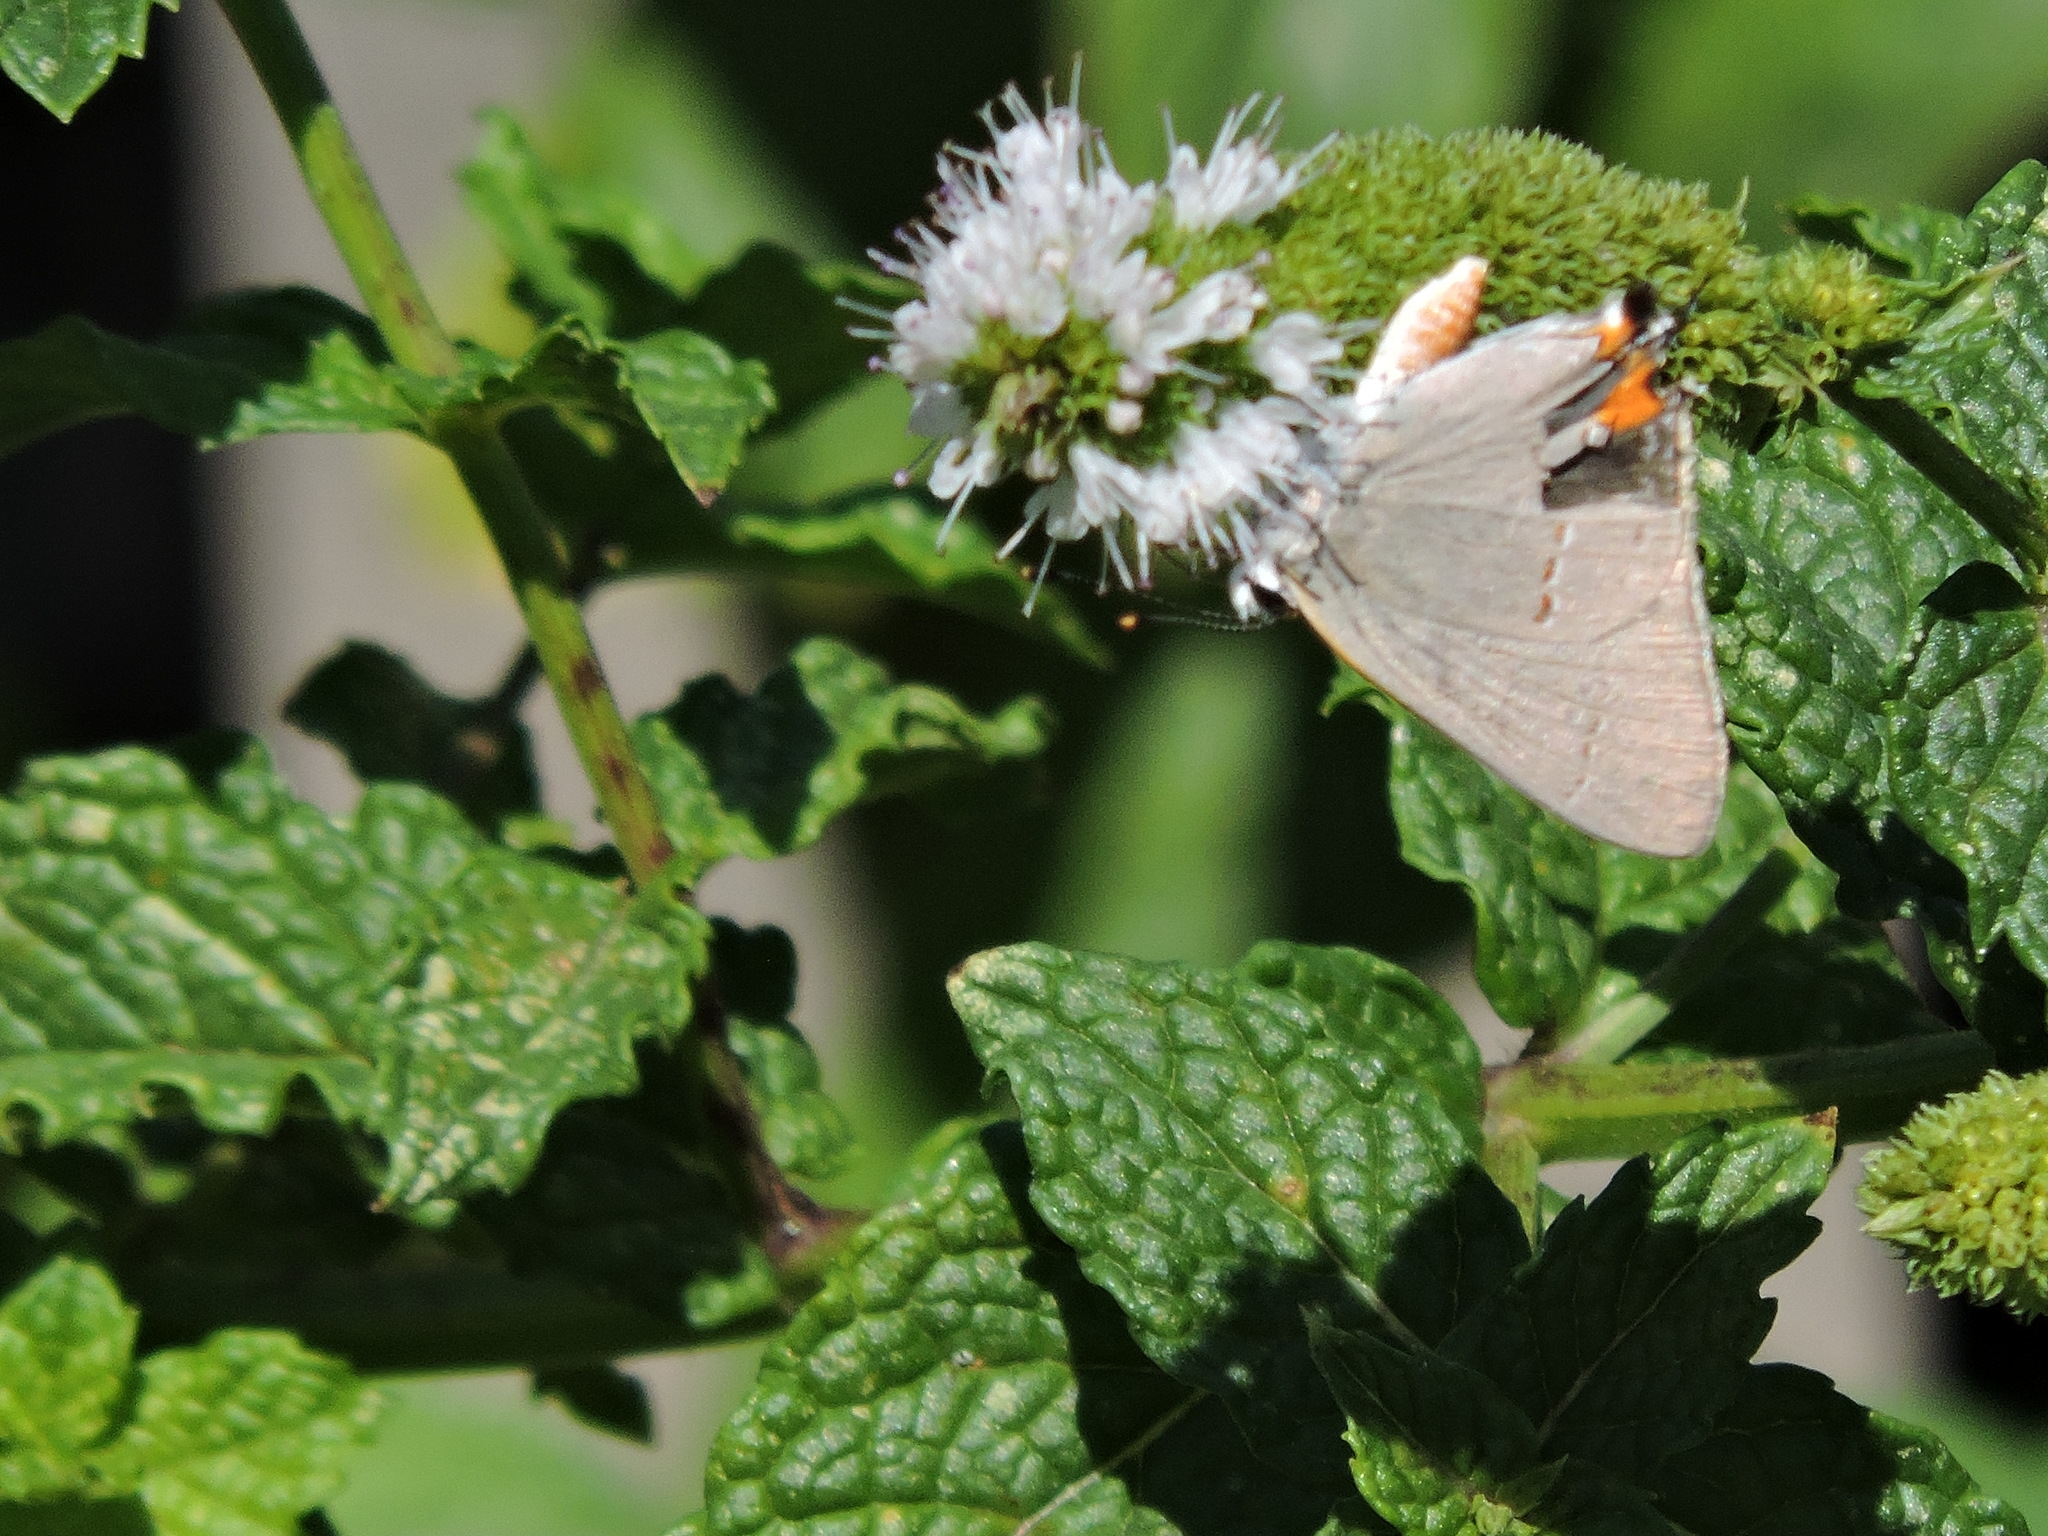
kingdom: Animalia
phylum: Arthropoda
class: Insecta
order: Lepidoptera
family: Lycaenidae
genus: Strymon
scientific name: Strymon melinus
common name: Gray hairstreak
